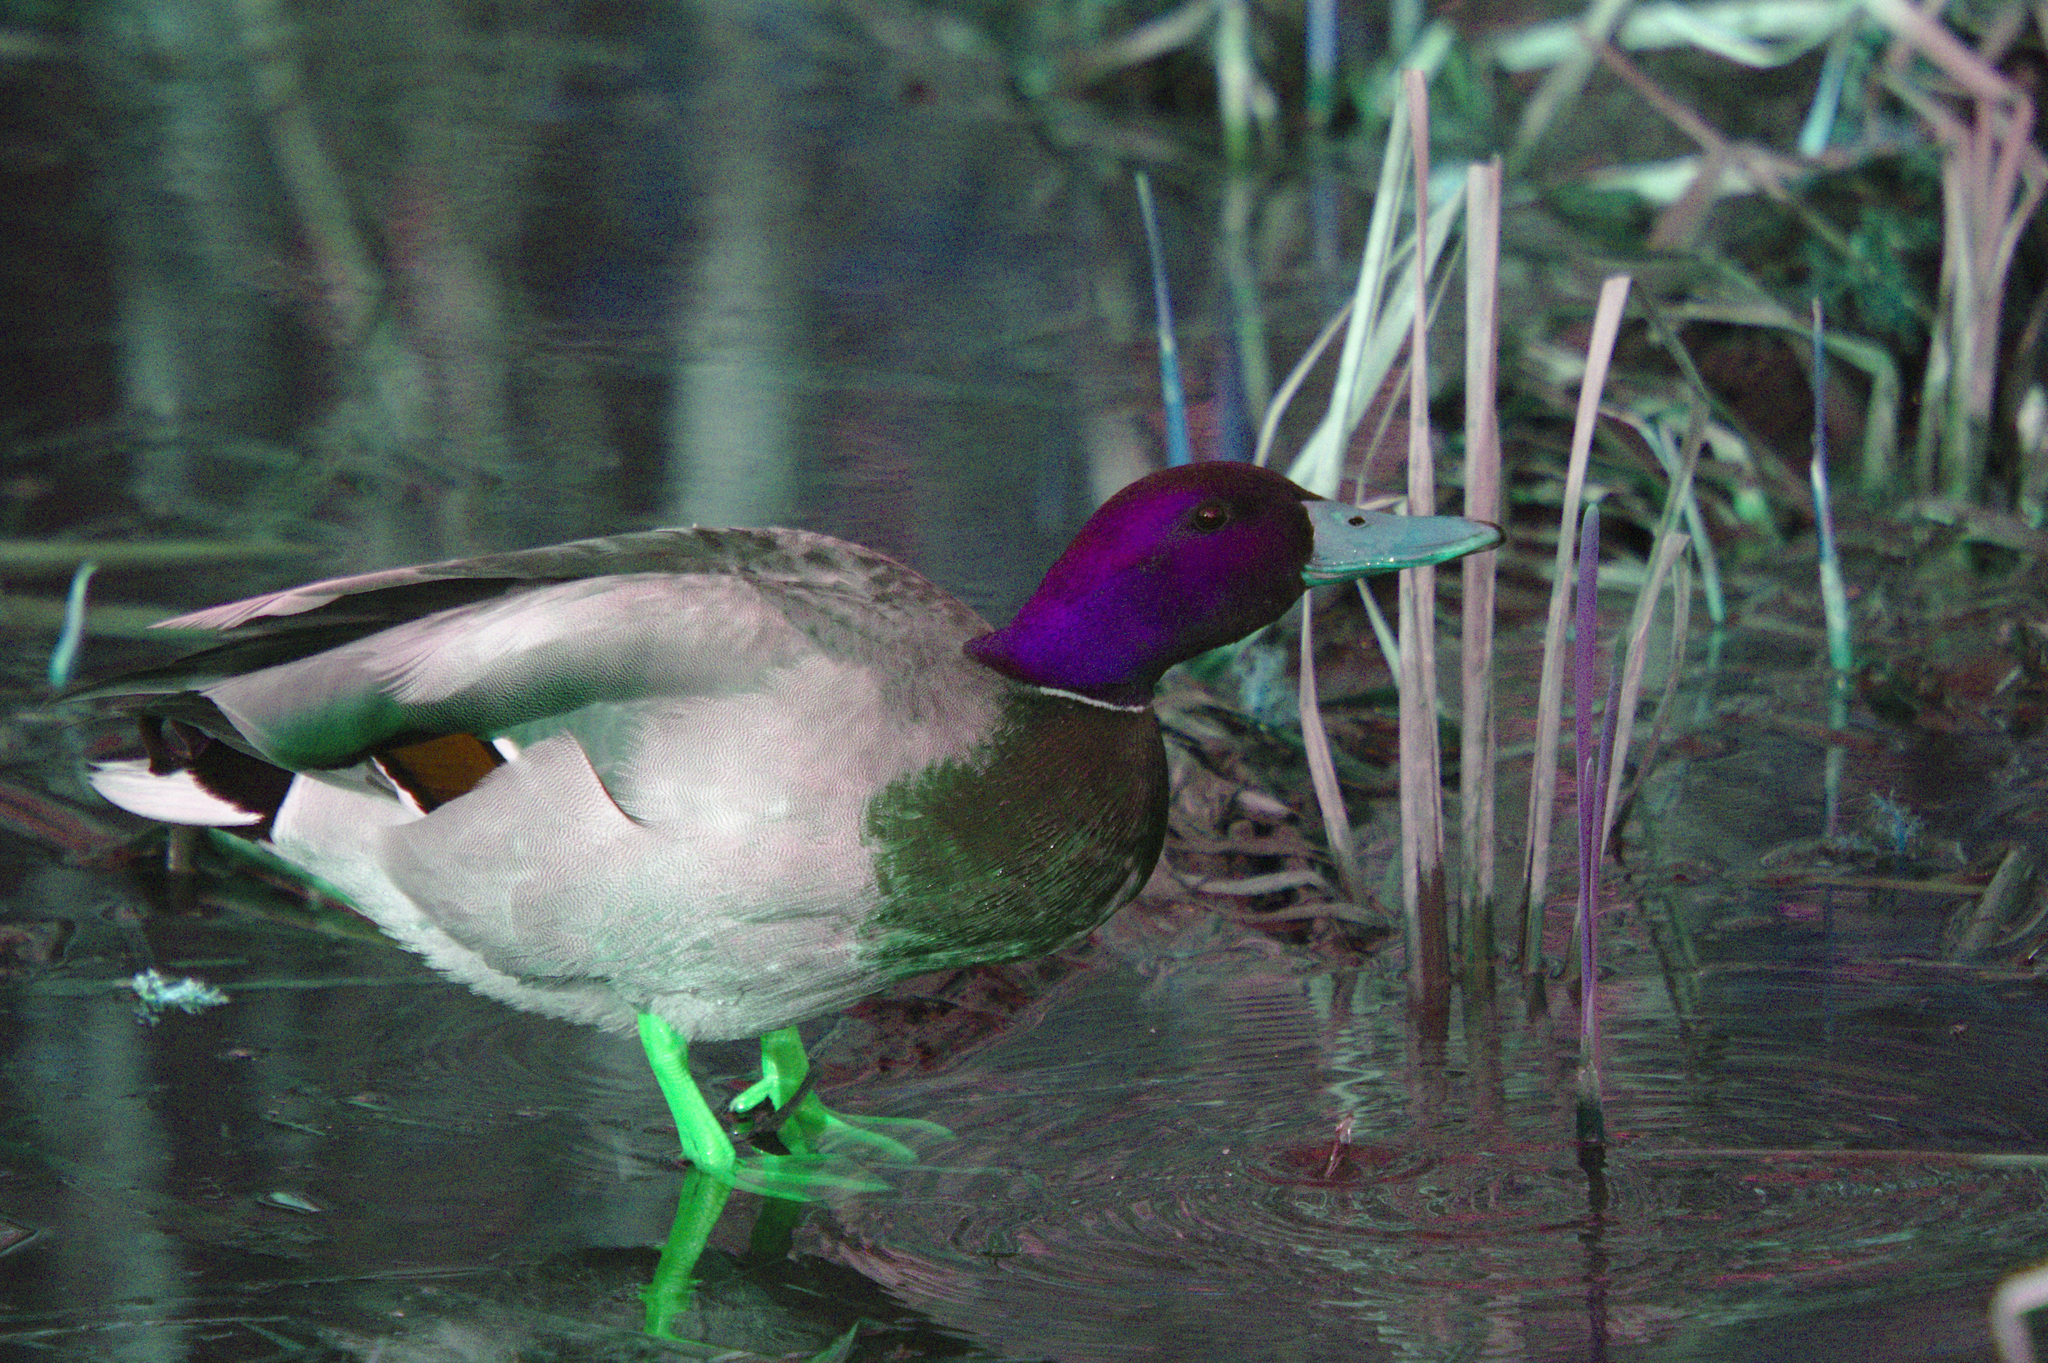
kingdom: Animalia
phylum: Chordata
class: Aves
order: Anseriformes
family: Anatidae
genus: Anas
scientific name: Anas platyrhynchos
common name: Mallard
